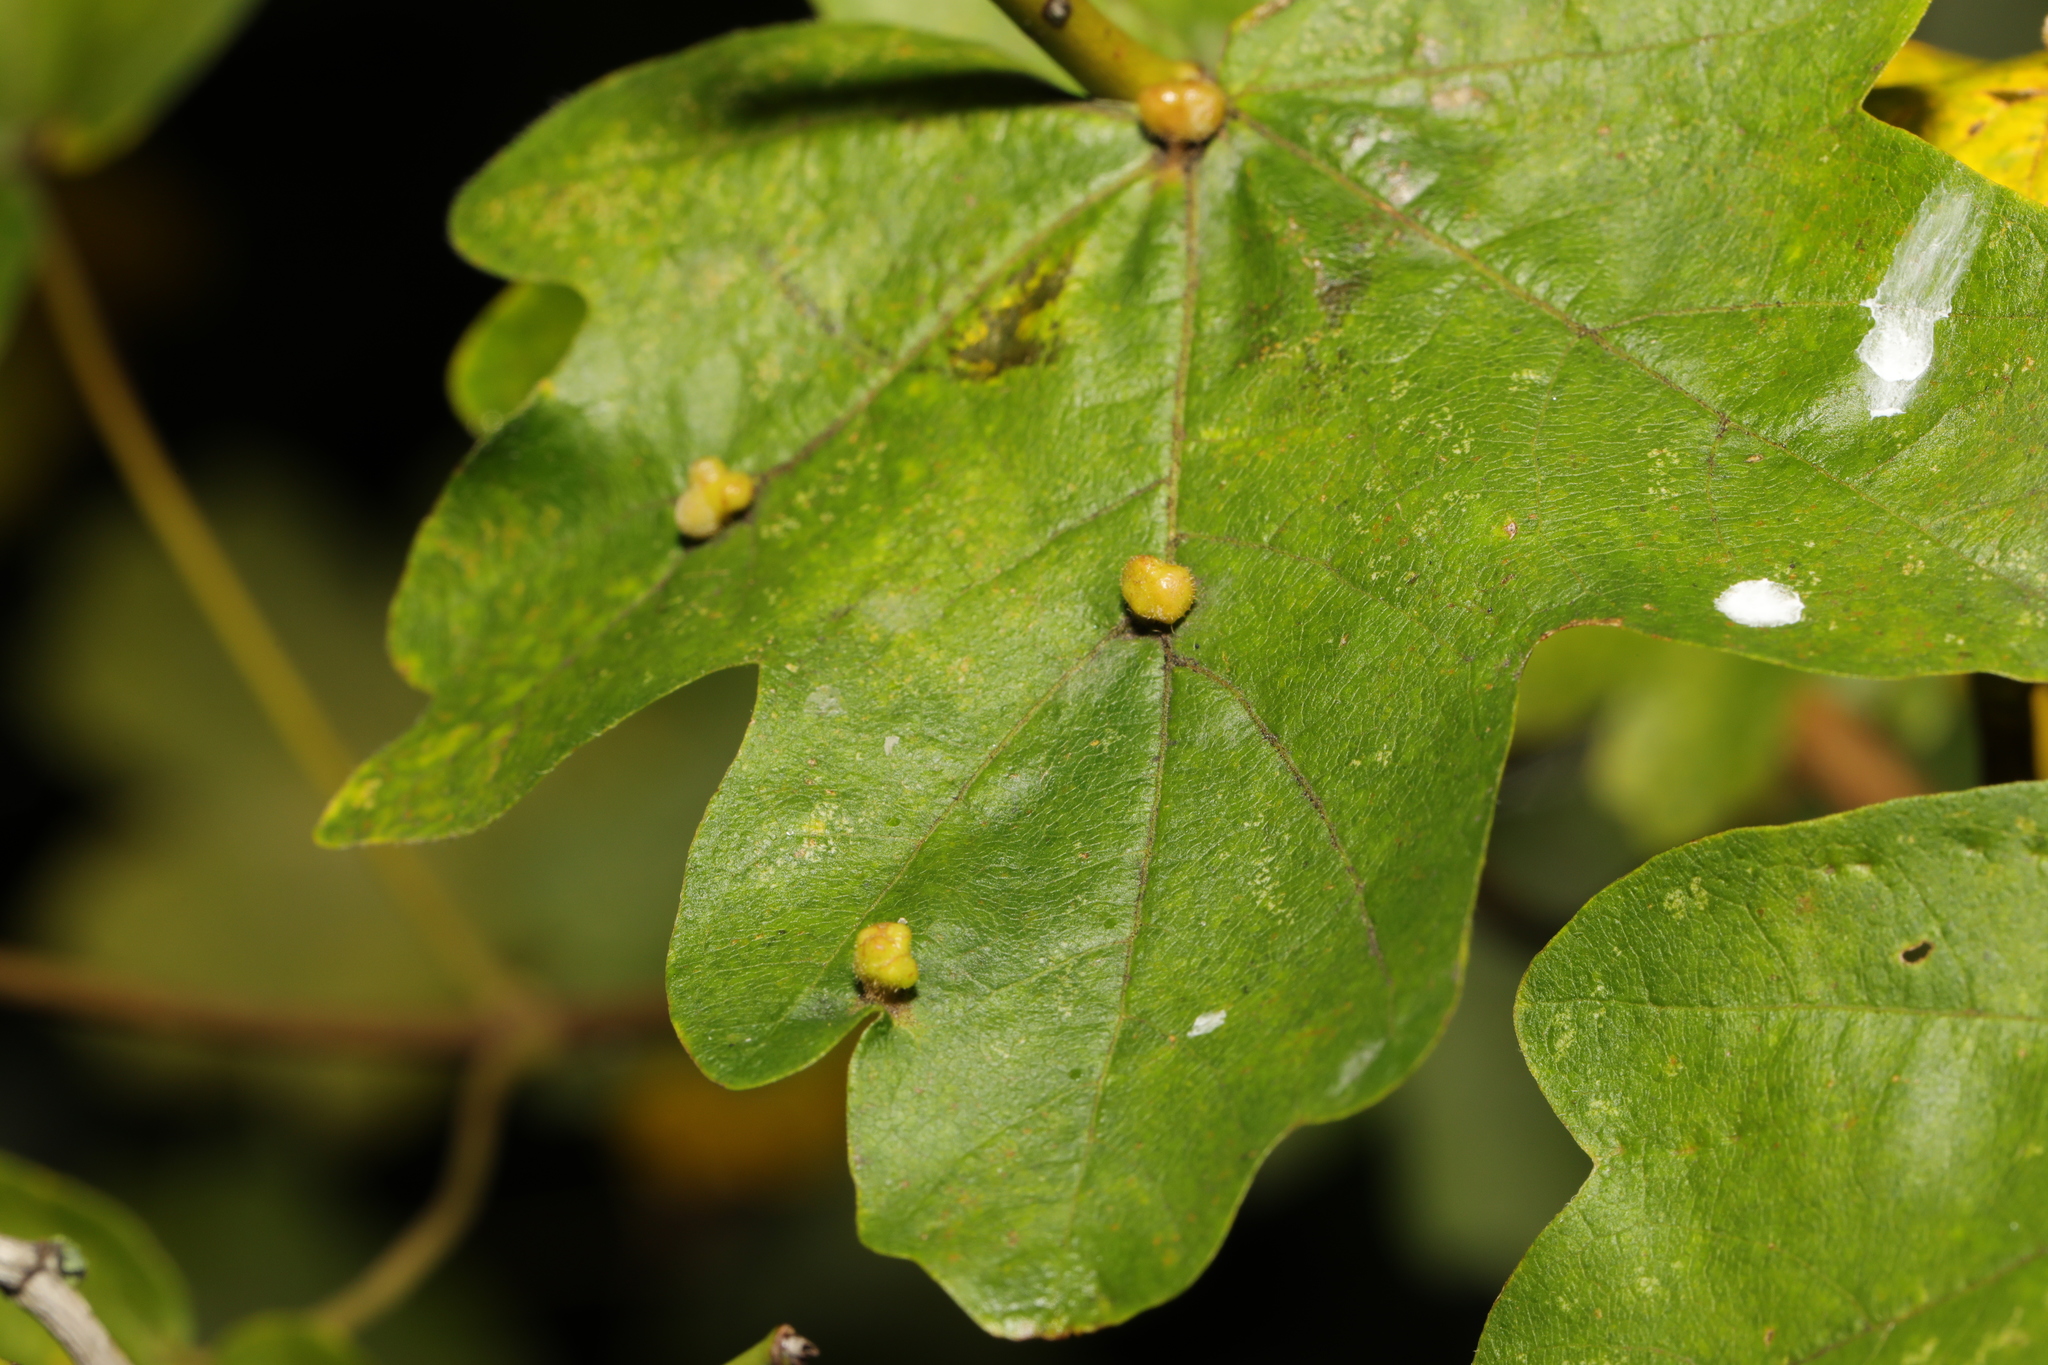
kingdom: Animalia
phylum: Arthropoda
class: Arachnida
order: Trombidiformes
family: Eriophyidae
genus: Aceria
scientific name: Aceria macrochelus
